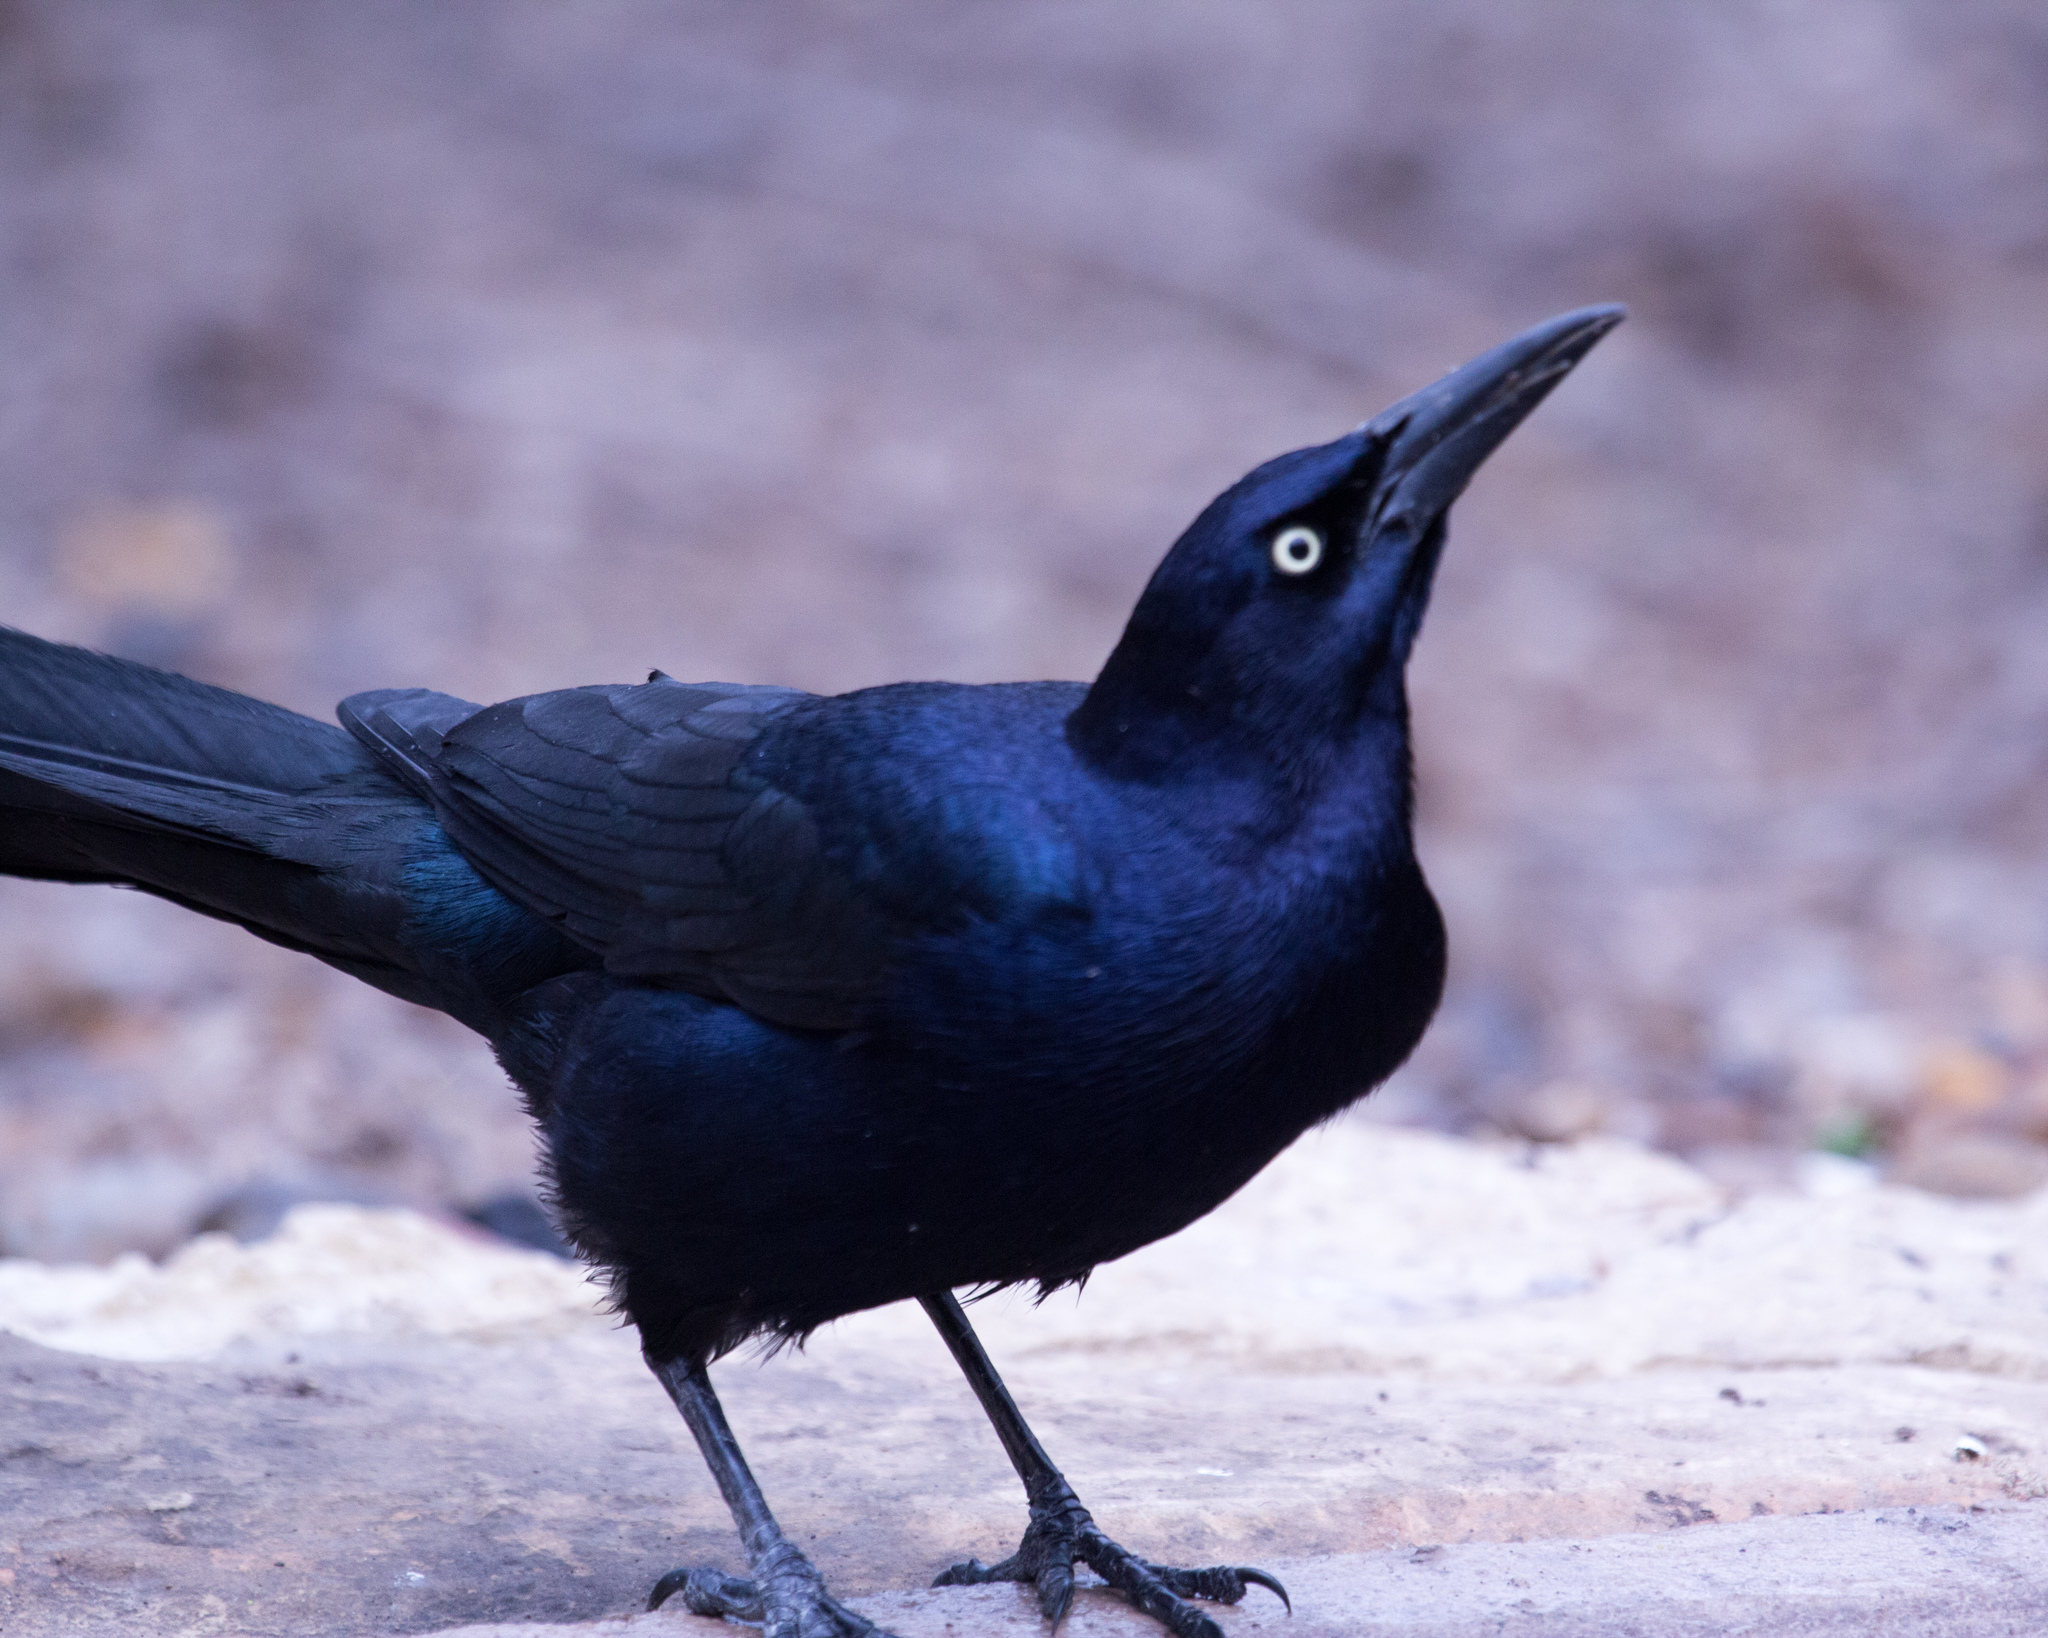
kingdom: Animalia
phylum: Chordata
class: Aves
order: Passeriformes
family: Icteridae
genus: Quiscalus
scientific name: Quiscalus mexicanus
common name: Great-tailed grackle
